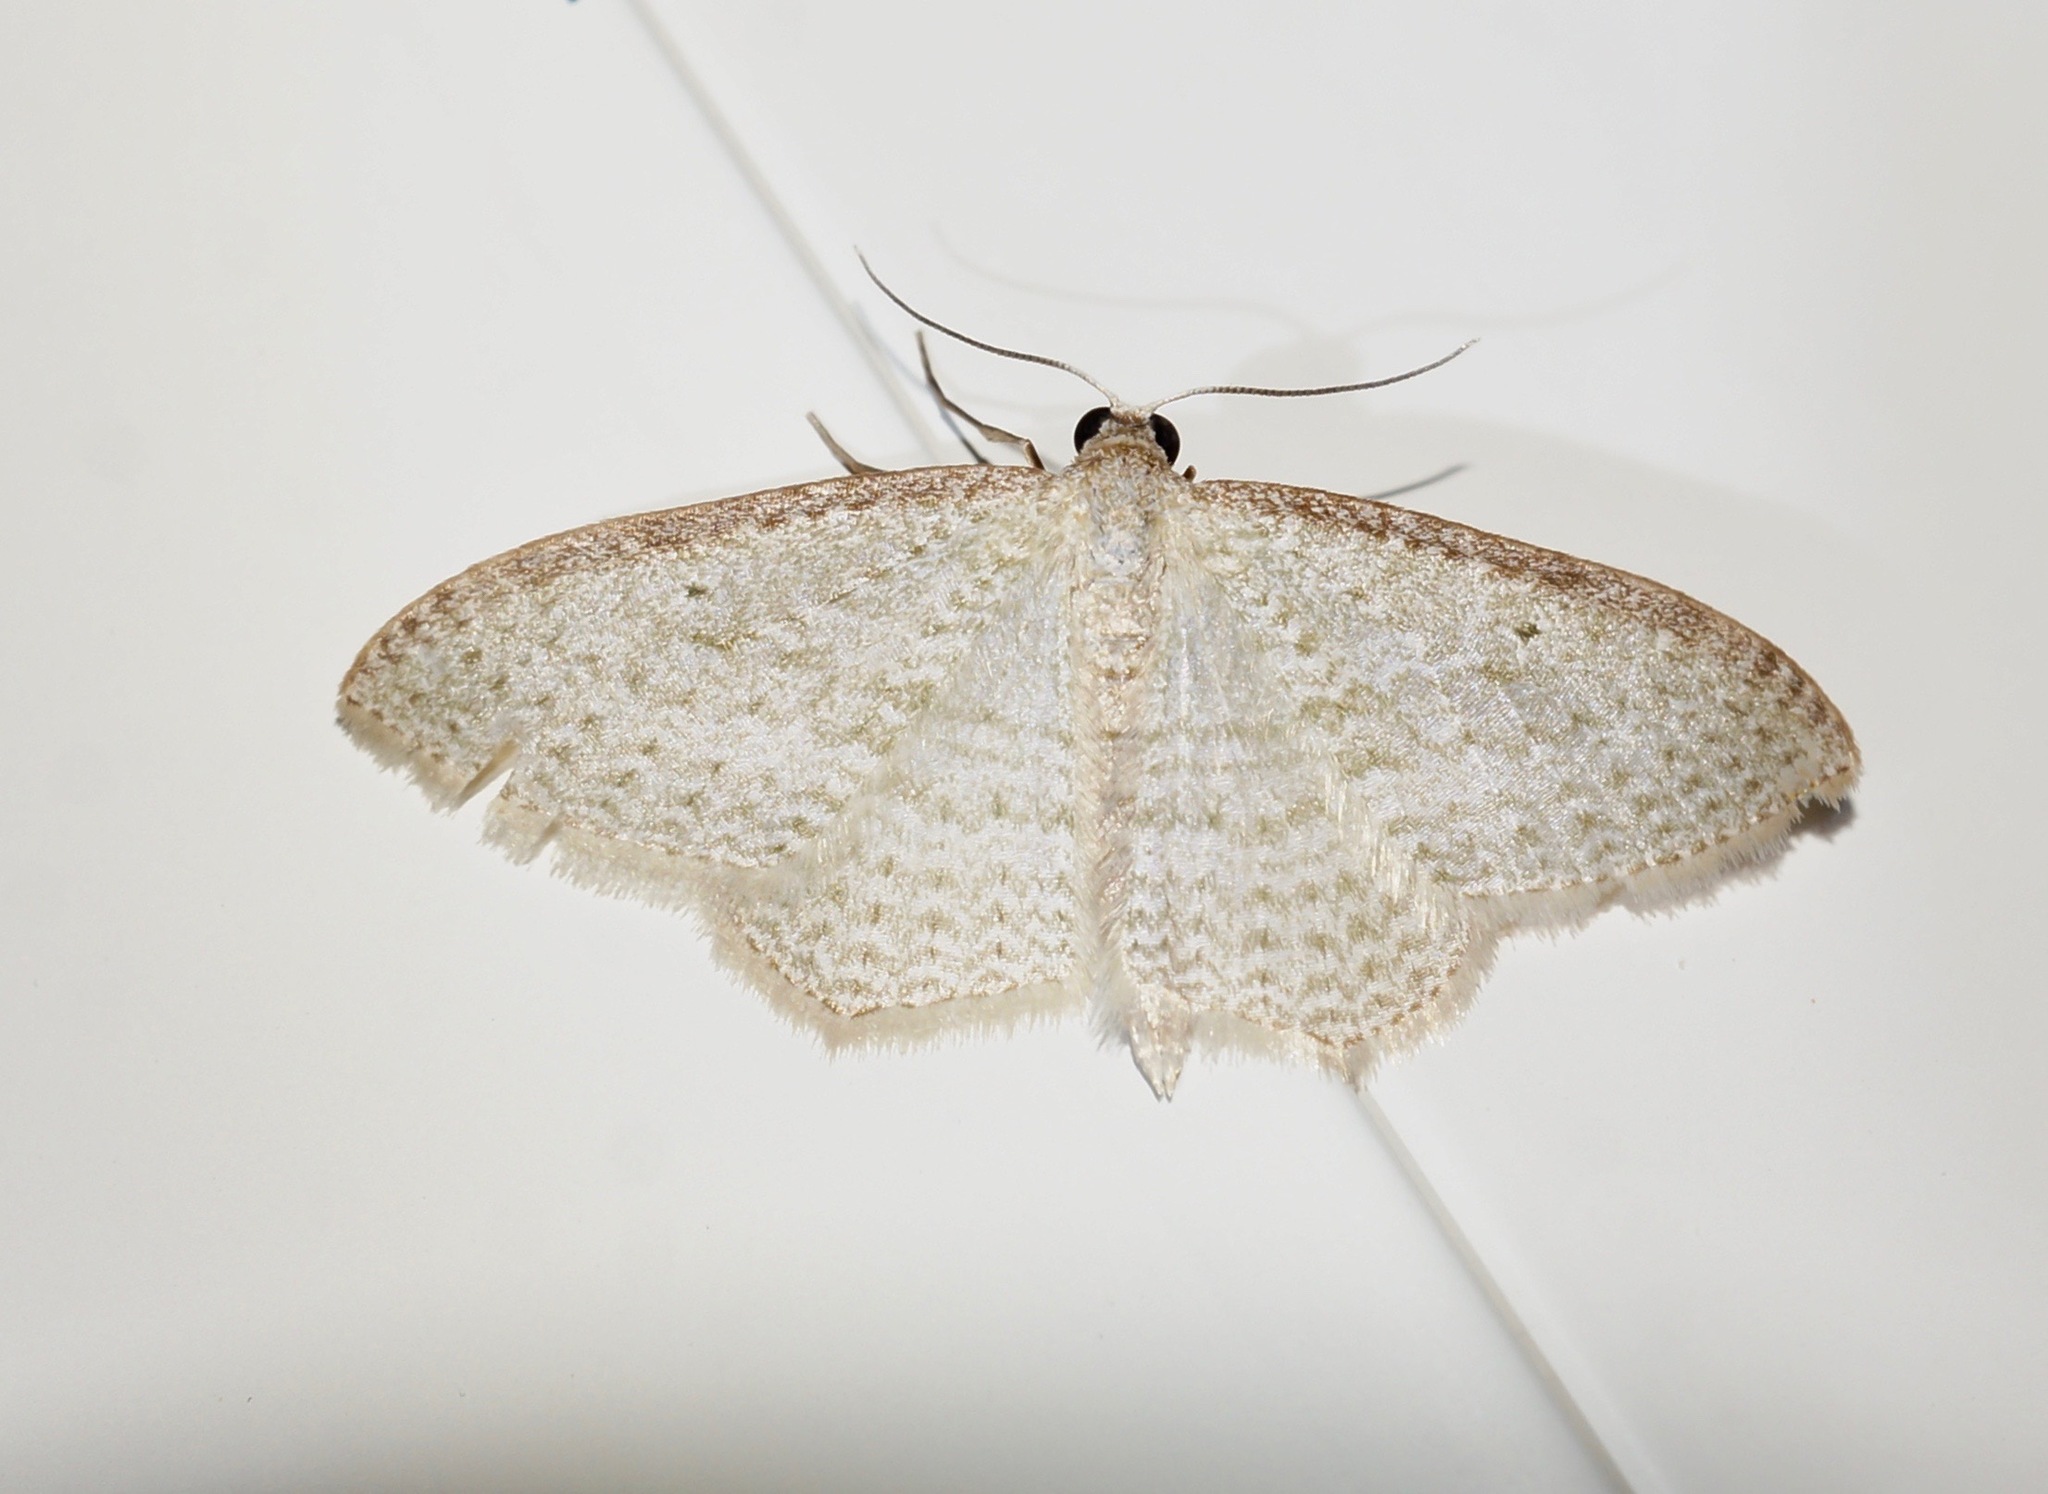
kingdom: Animalia
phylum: Arthropoda
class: Insecta
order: Lepidoptera
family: Geometridae
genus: Poecilasthena
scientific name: Poecilasthena pulchraria
